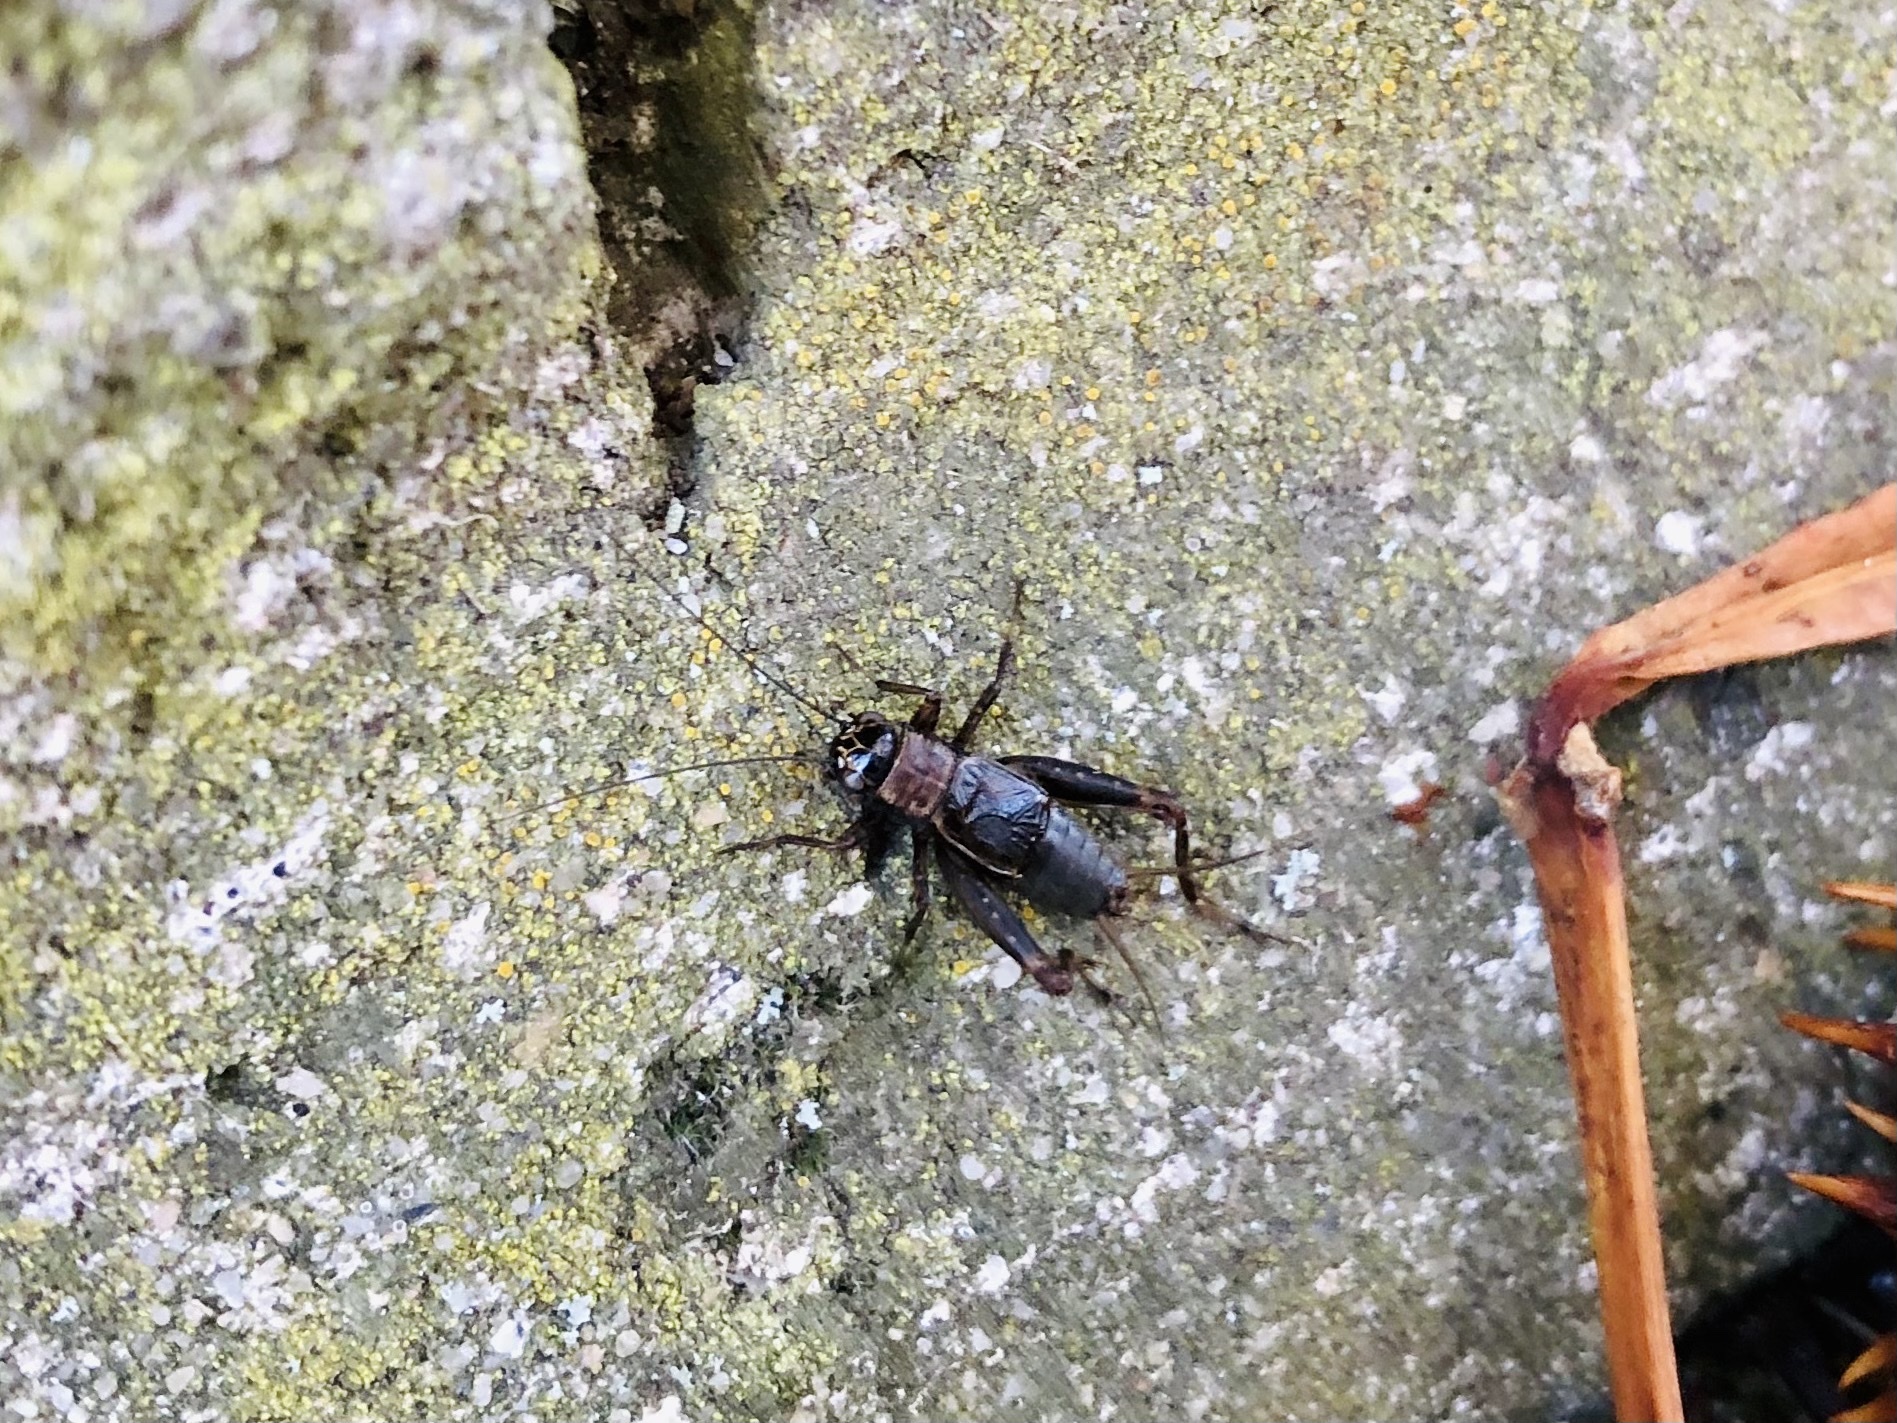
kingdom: Animalia
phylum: Arthropoda
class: Insecta
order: Orthoptera
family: Trigonidiidae
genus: Nemobius
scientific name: Nemobius sylvestris
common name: Wood-cricket
